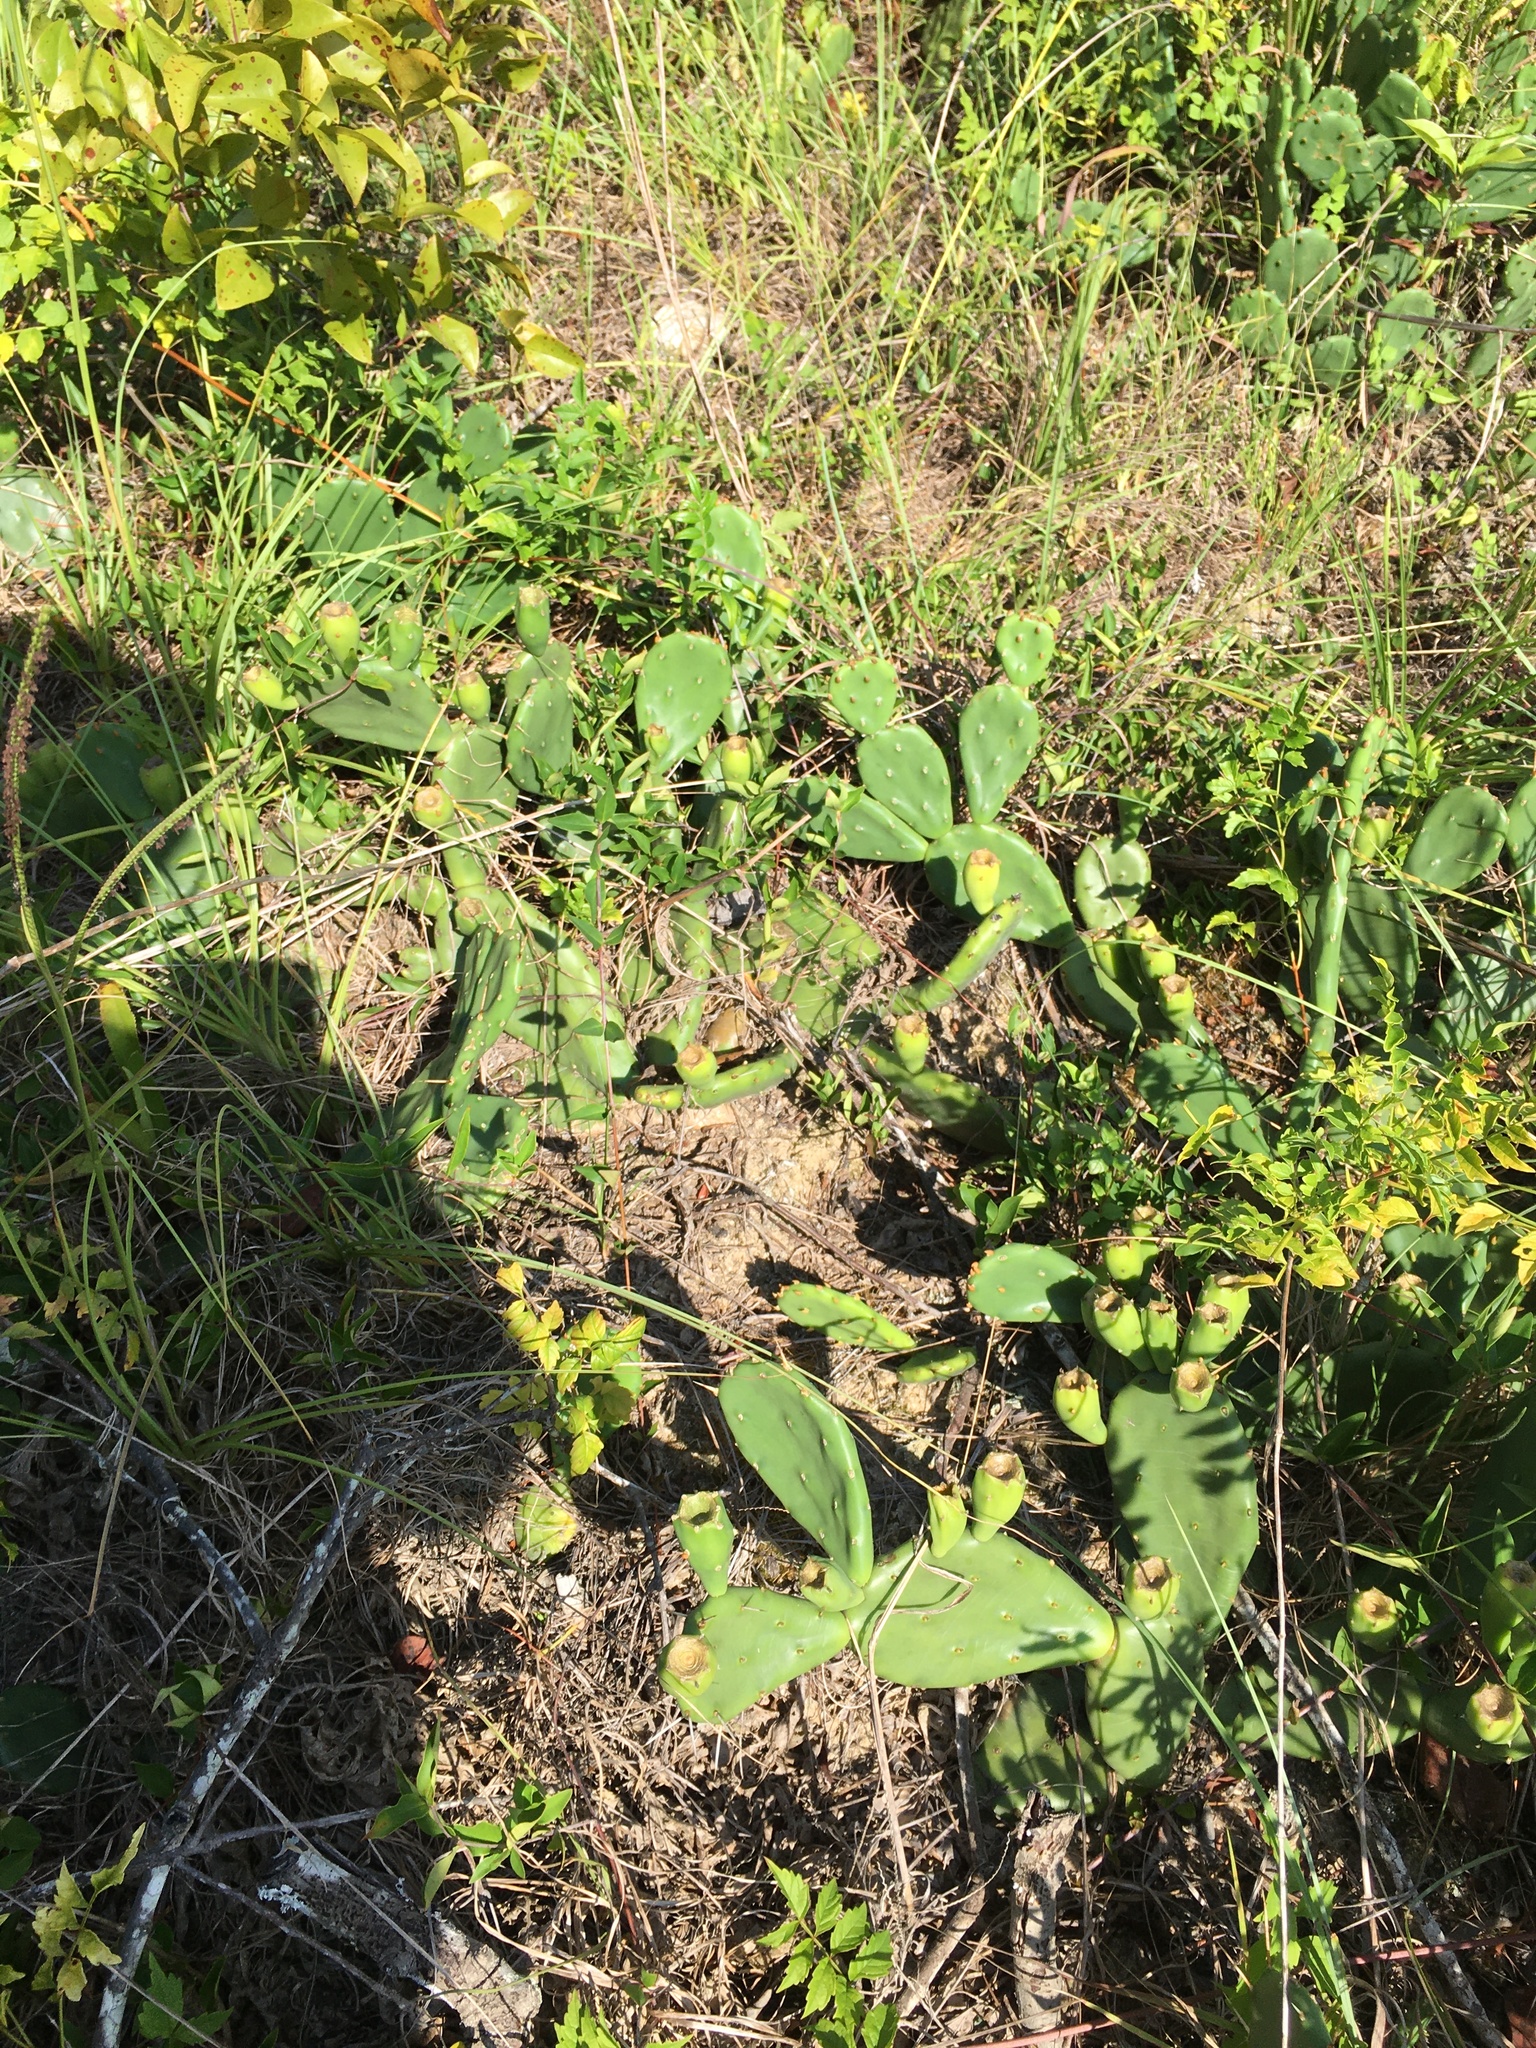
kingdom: Plantae
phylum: Tracheophyta
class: Magnoliopsida
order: Caryophyllales
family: Cactaceae
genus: Opuntia
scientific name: Opuntia mesacantha
